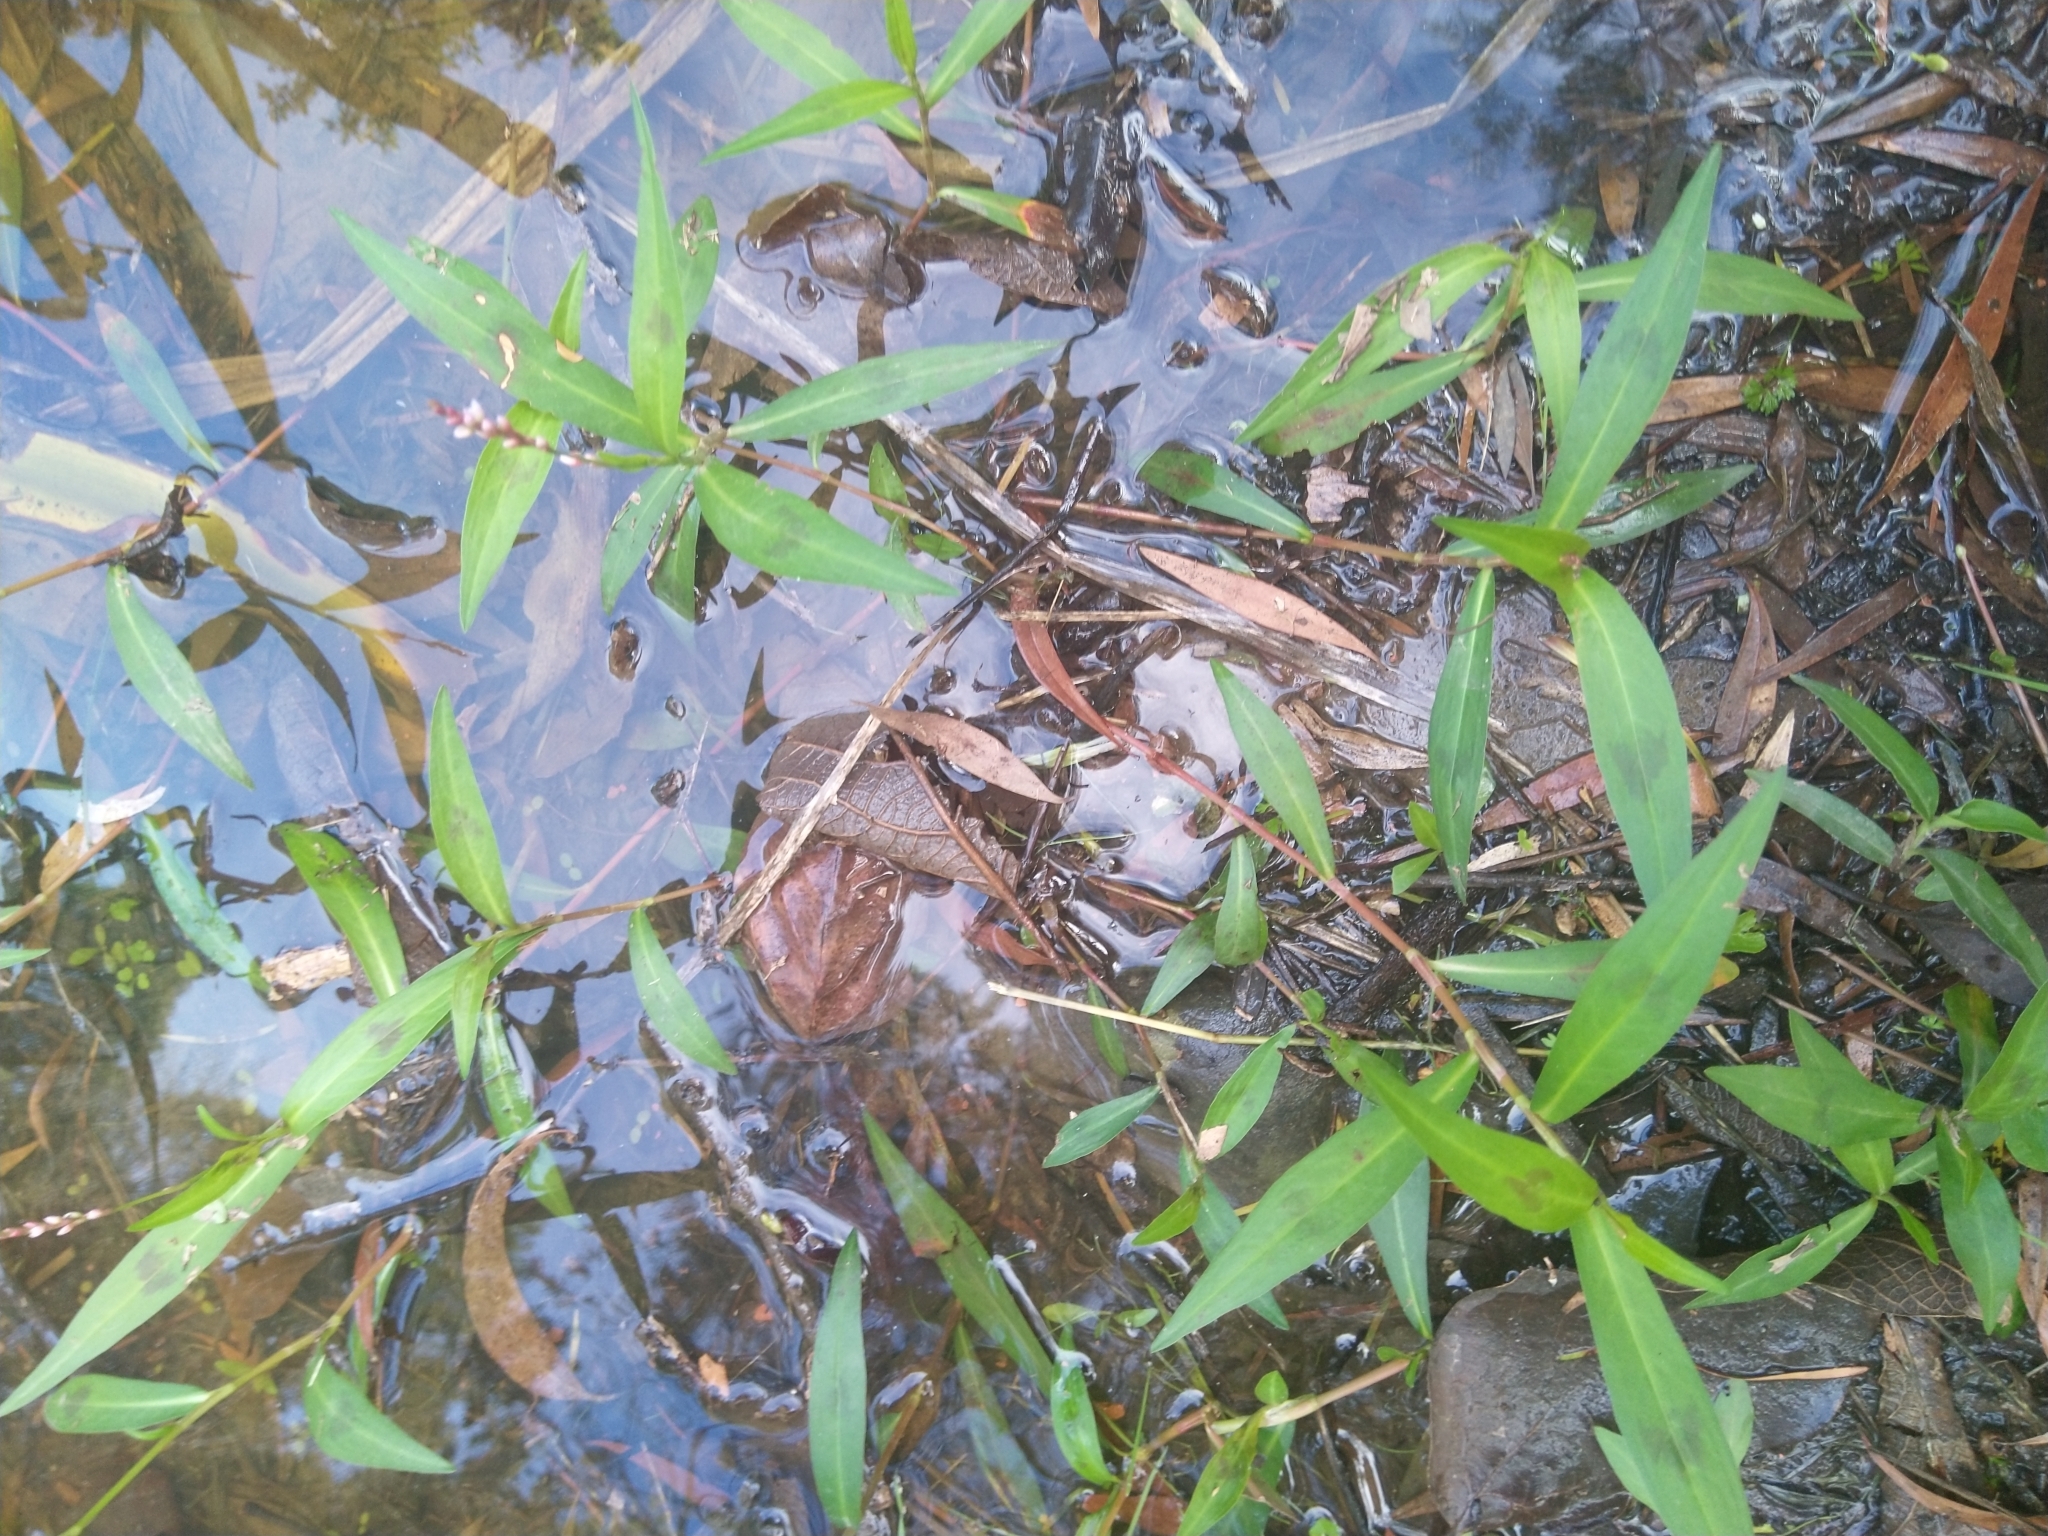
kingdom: Plantae
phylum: Tracheophyta
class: Magnoliopsida
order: Caryophyllales
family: Polygonaceae
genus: Persicaria
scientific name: Persicaria decipiens
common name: Willow-weed
